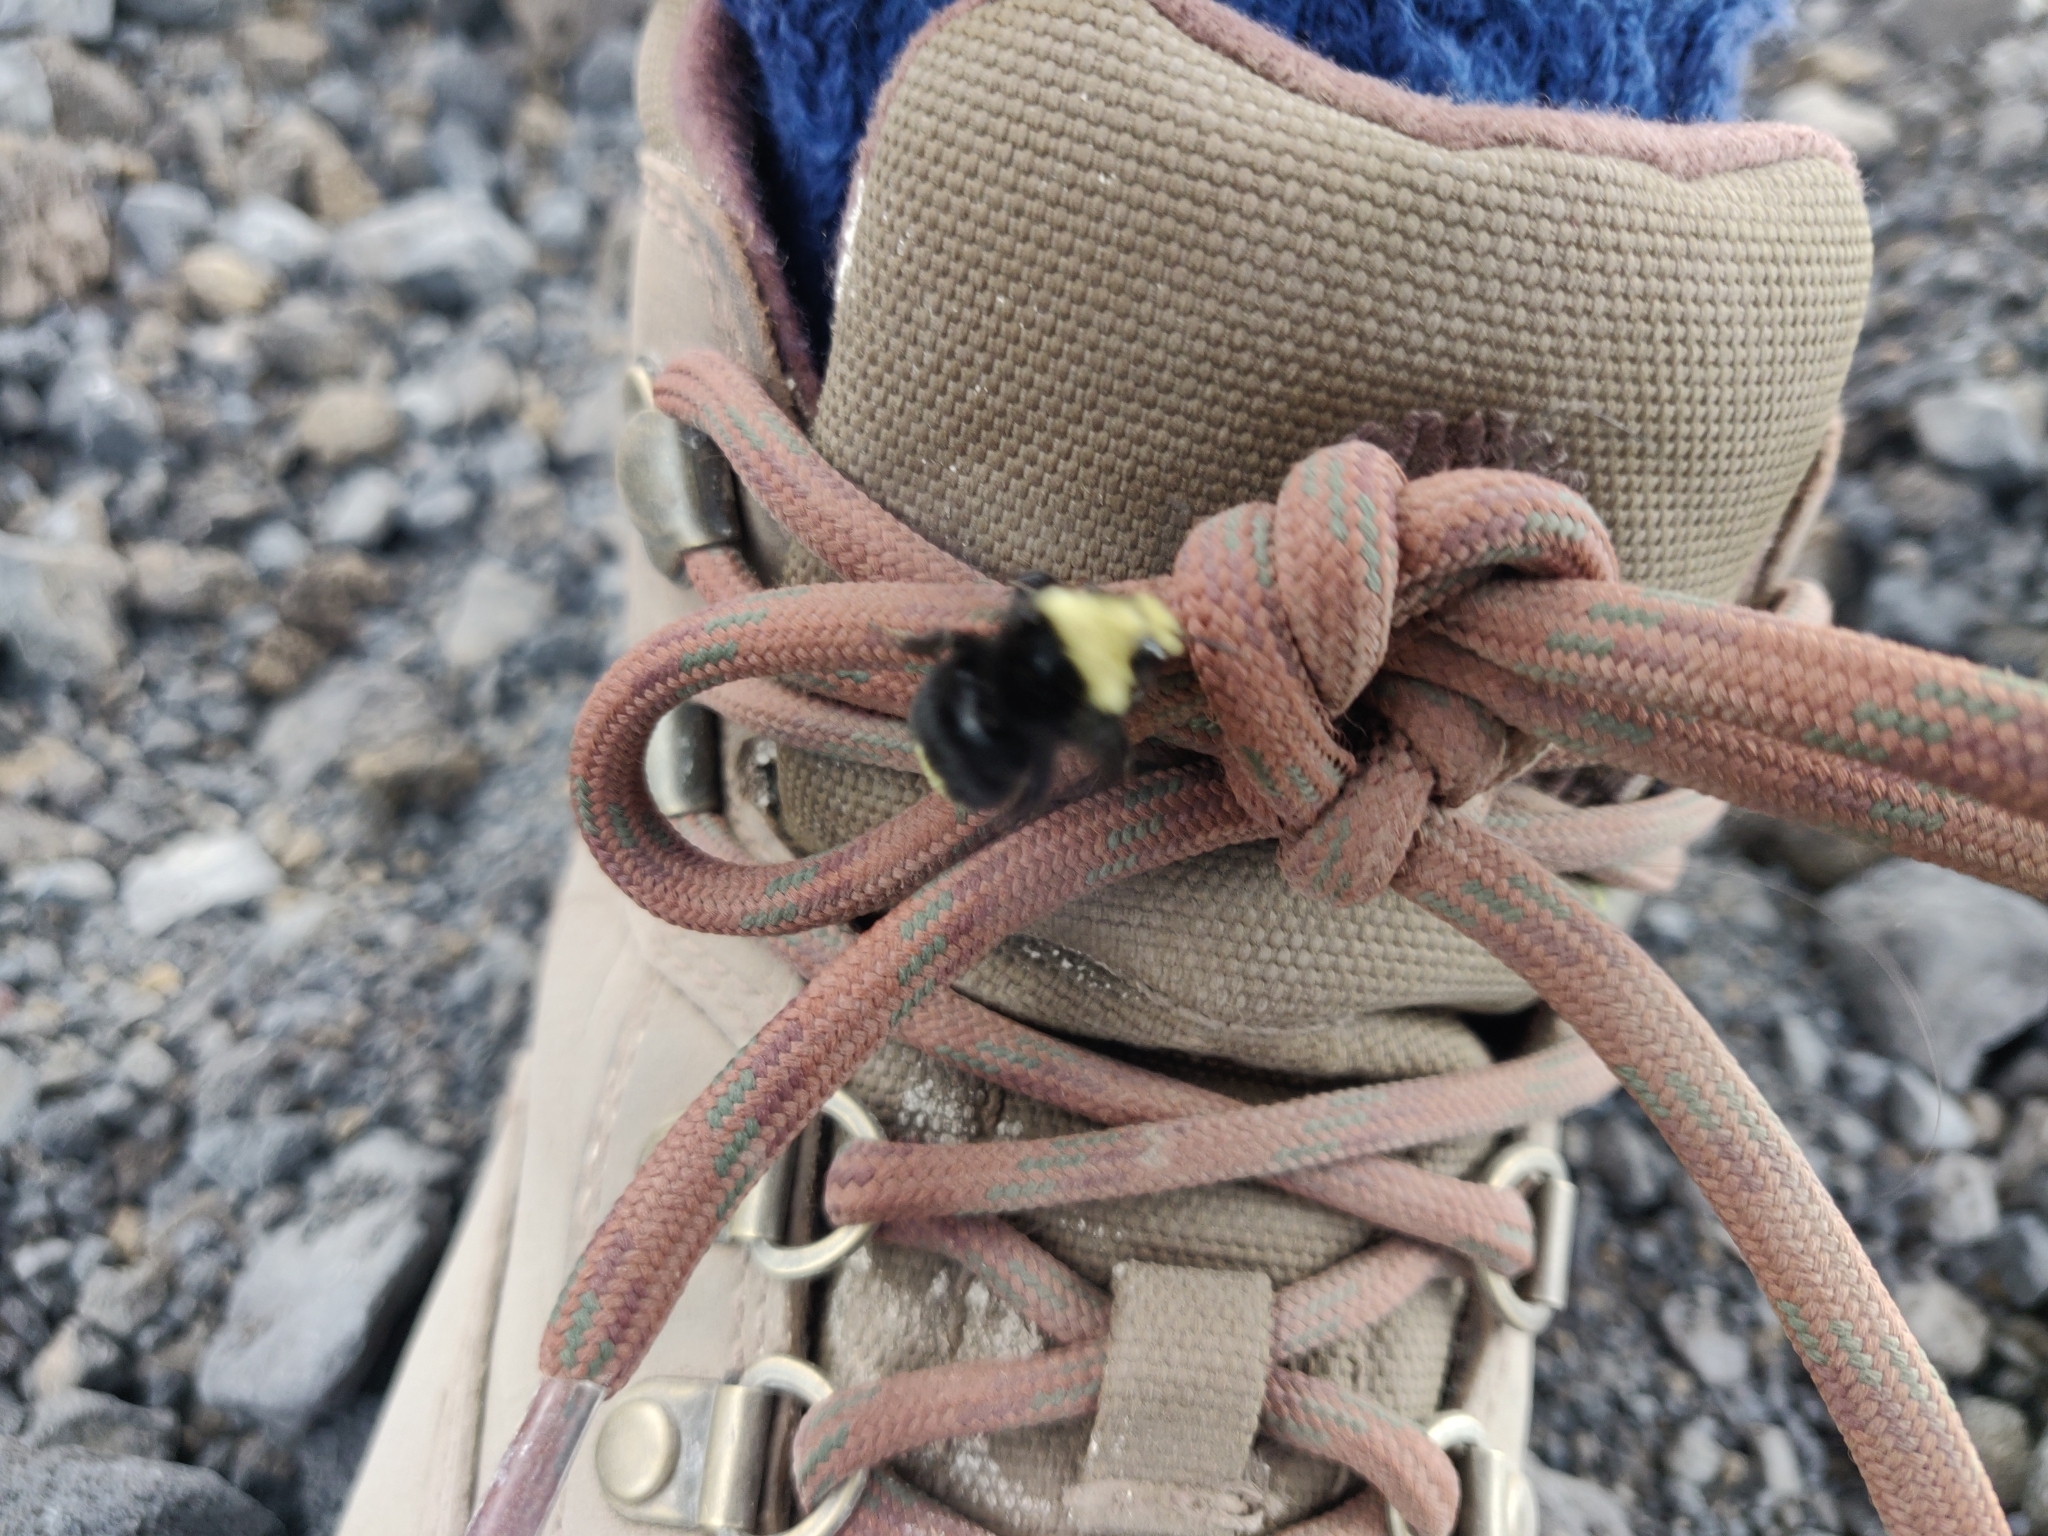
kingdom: Animalia
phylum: Arthropoda
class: Insecta
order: Hymenoptera
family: Apidae
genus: Bombus
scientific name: Bombus vosnesenskii
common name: Vosnesensky bumble bee
